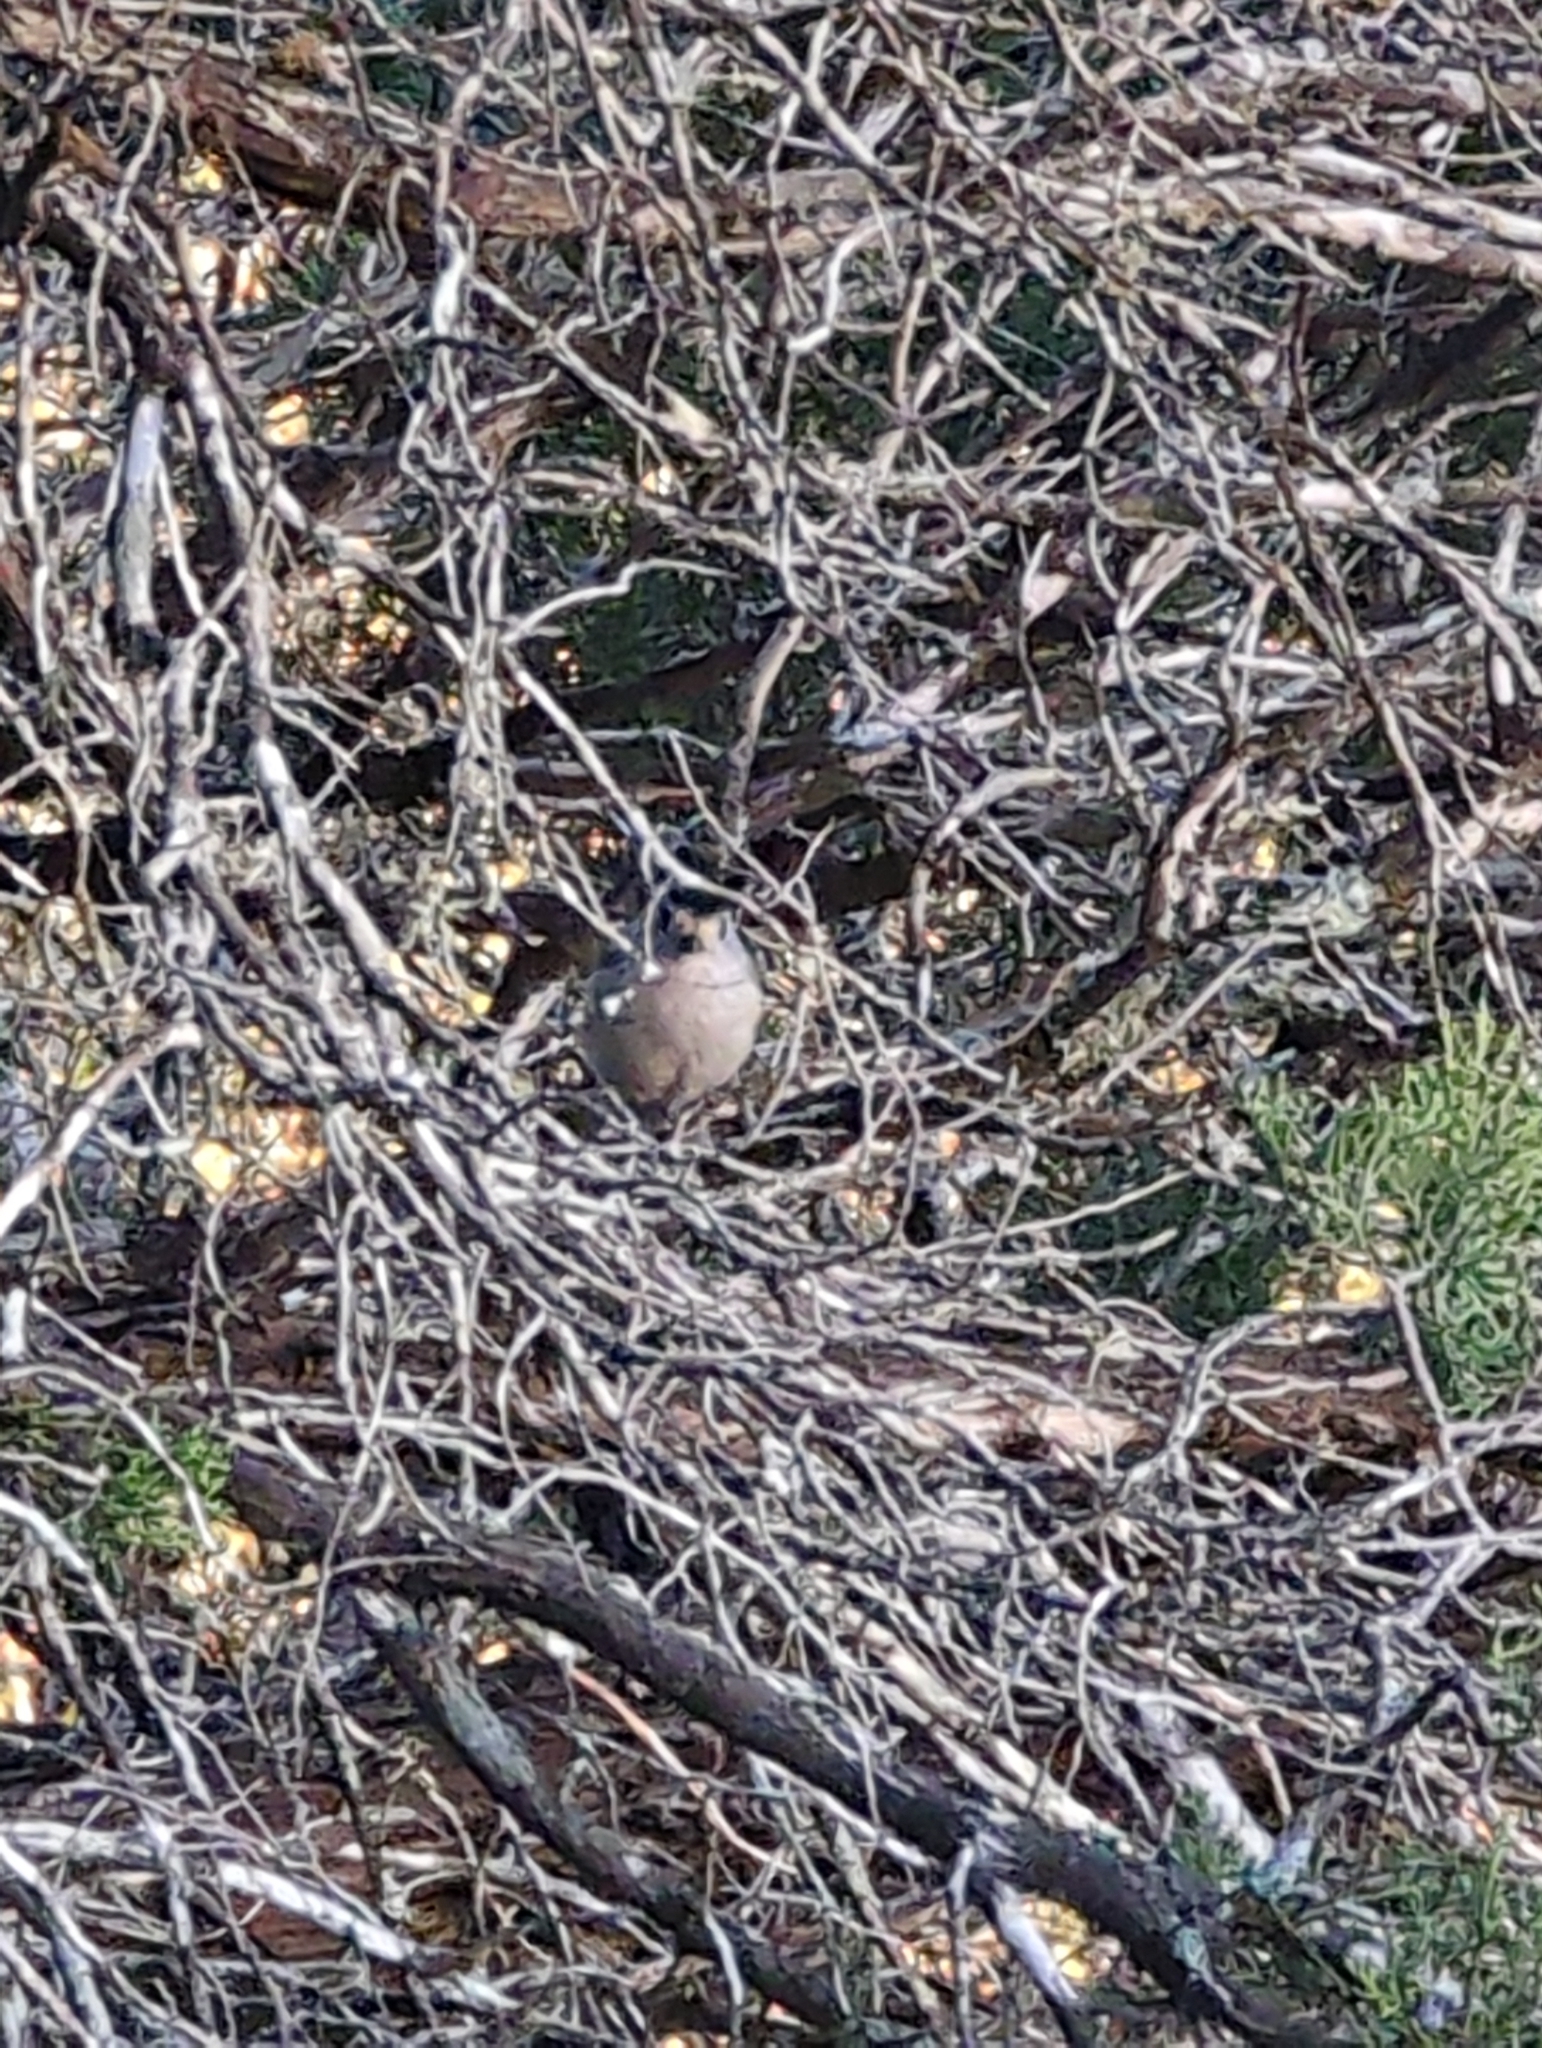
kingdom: Animalia
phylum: Chordata
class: Aves
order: Passeriformes
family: Paridae
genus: Baeolophus
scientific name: Baeolophus atricristatus
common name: Black-crested titmouse
